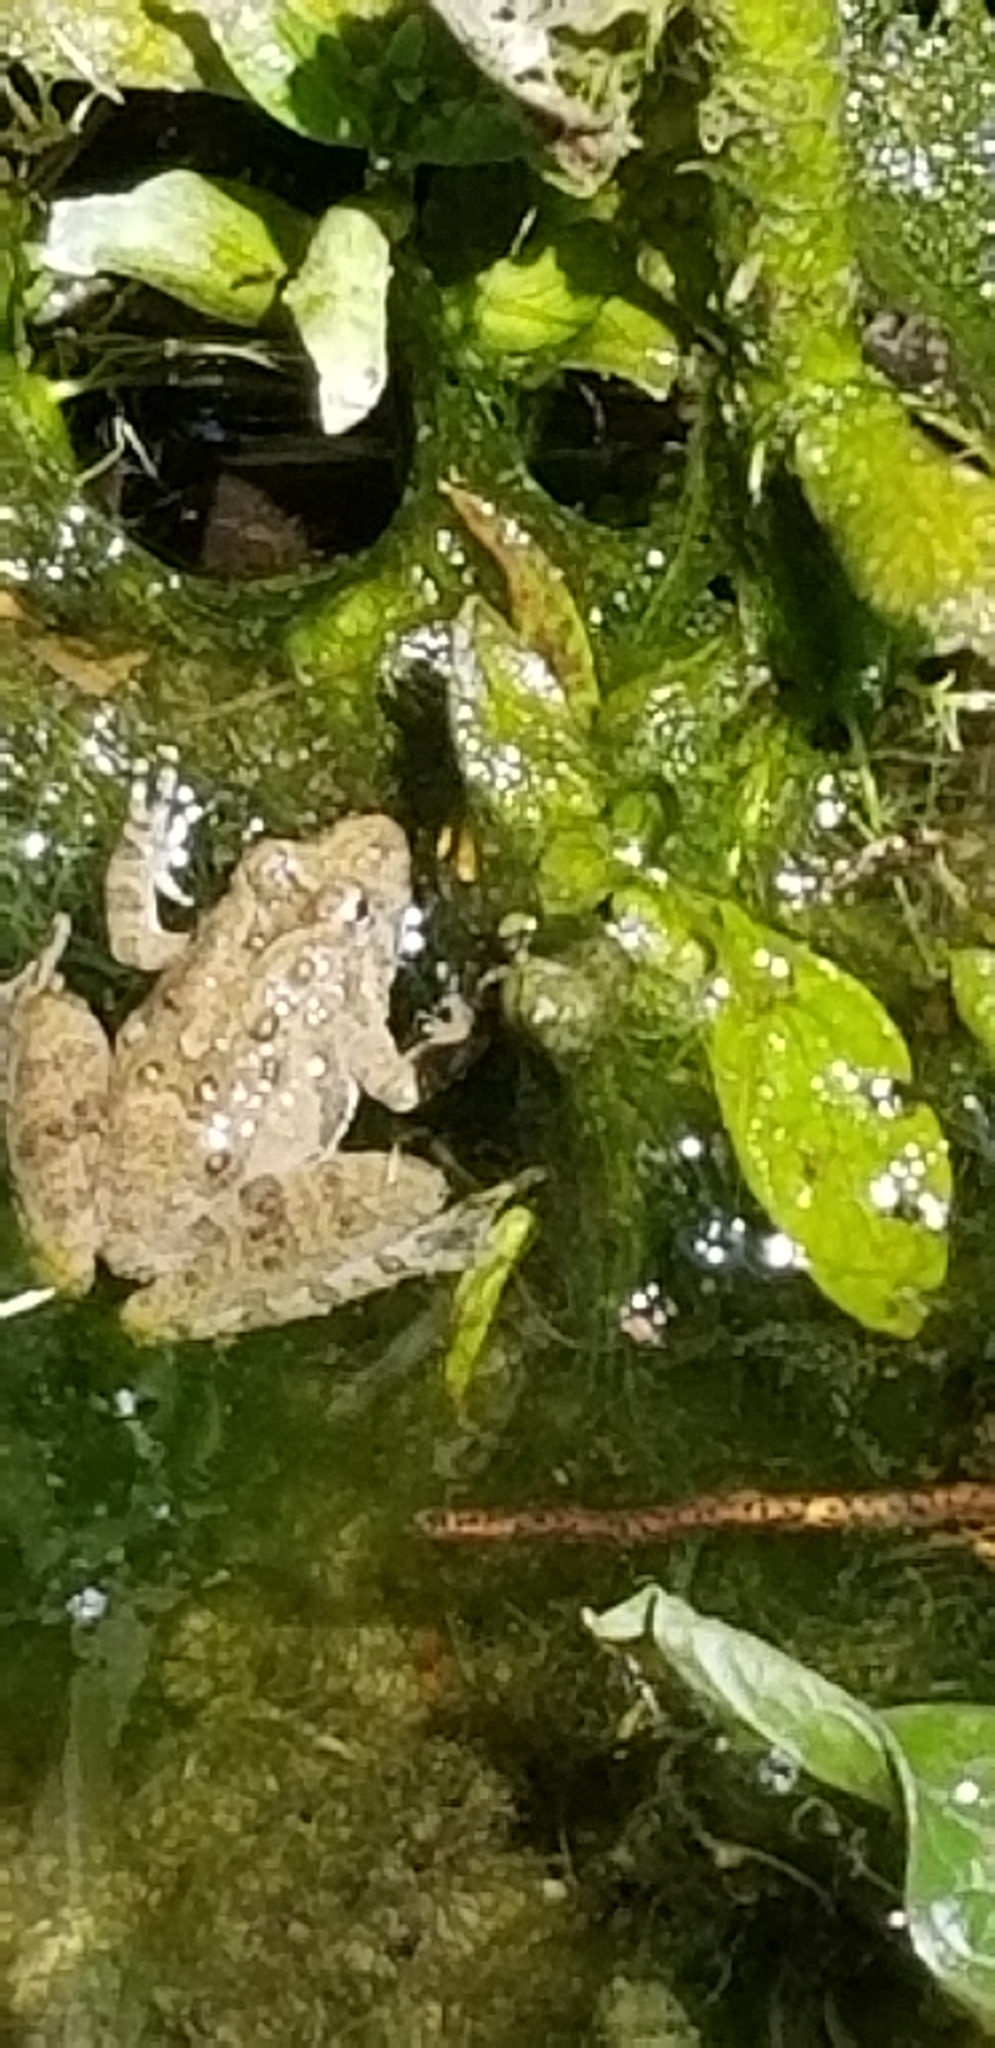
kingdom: Animalia
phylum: Chordata
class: Amphibia
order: Anura
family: Hylidae
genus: Acris
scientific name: Acris blanchardi
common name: Blanchard's cricket frog
